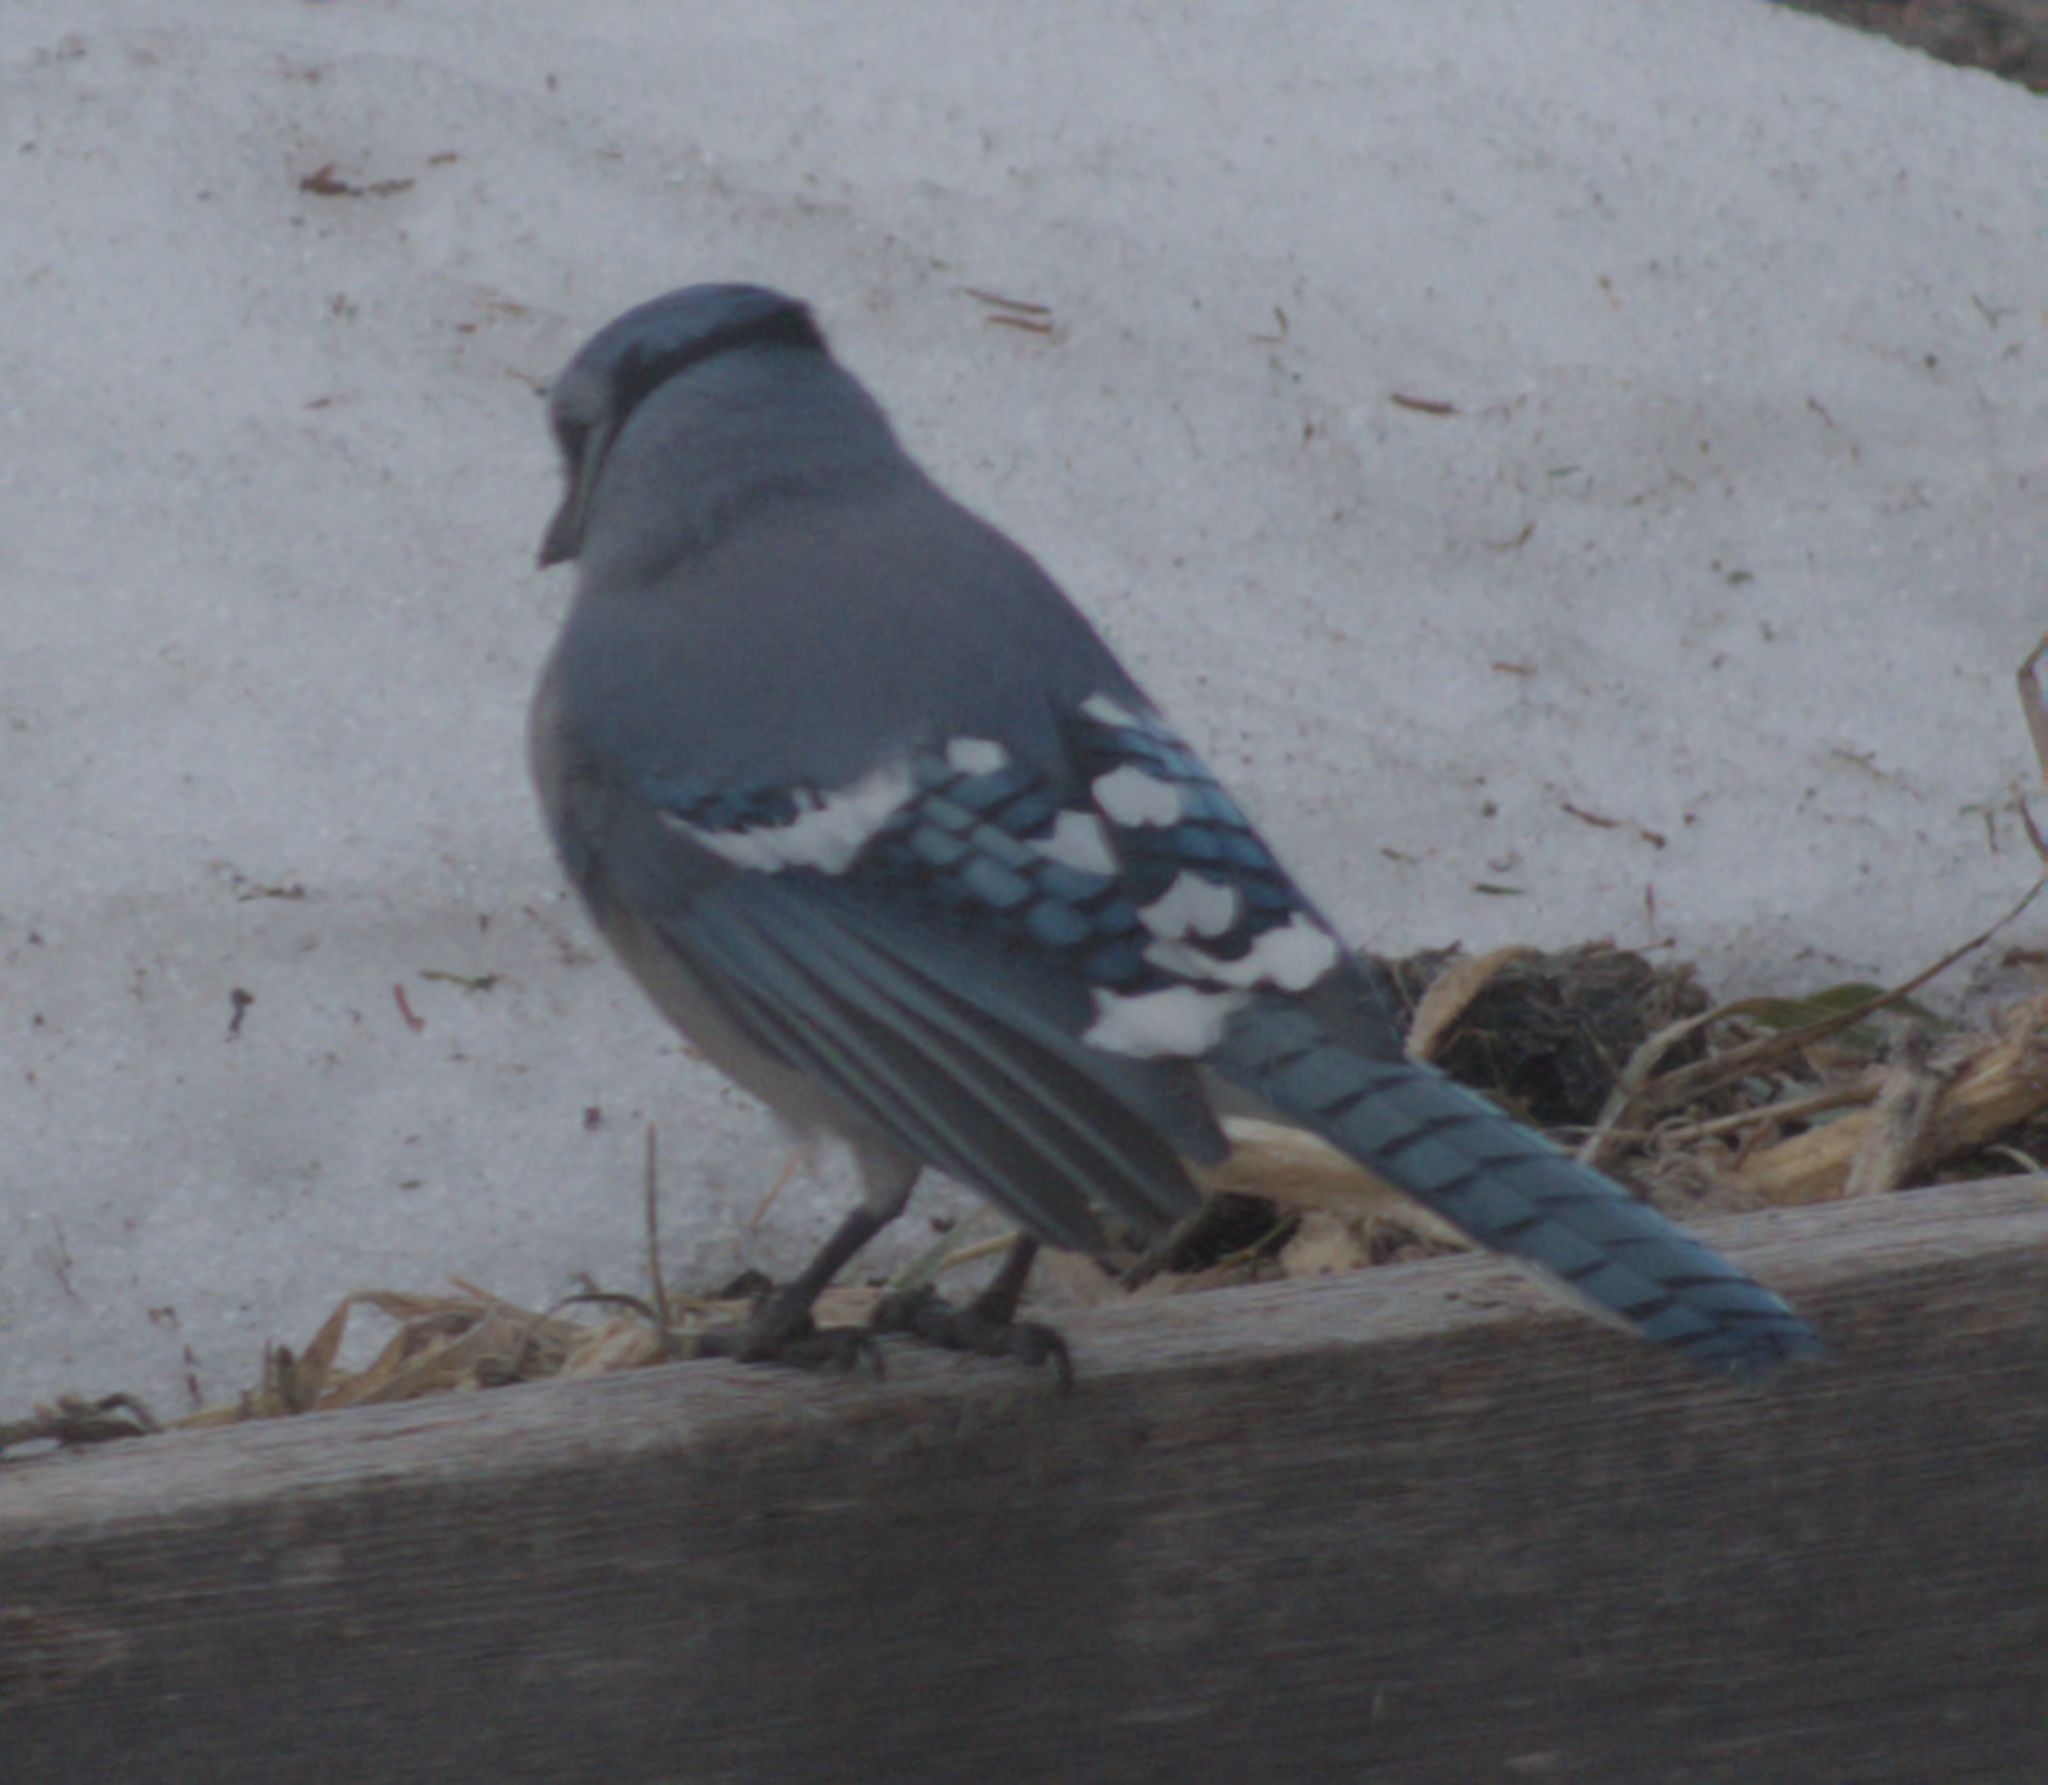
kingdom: Animalia
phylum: Chordata
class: Aves
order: Passeriformes
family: Corvidae
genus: Cyanocitta
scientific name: Cyanocitta cristata
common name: Blue jay
